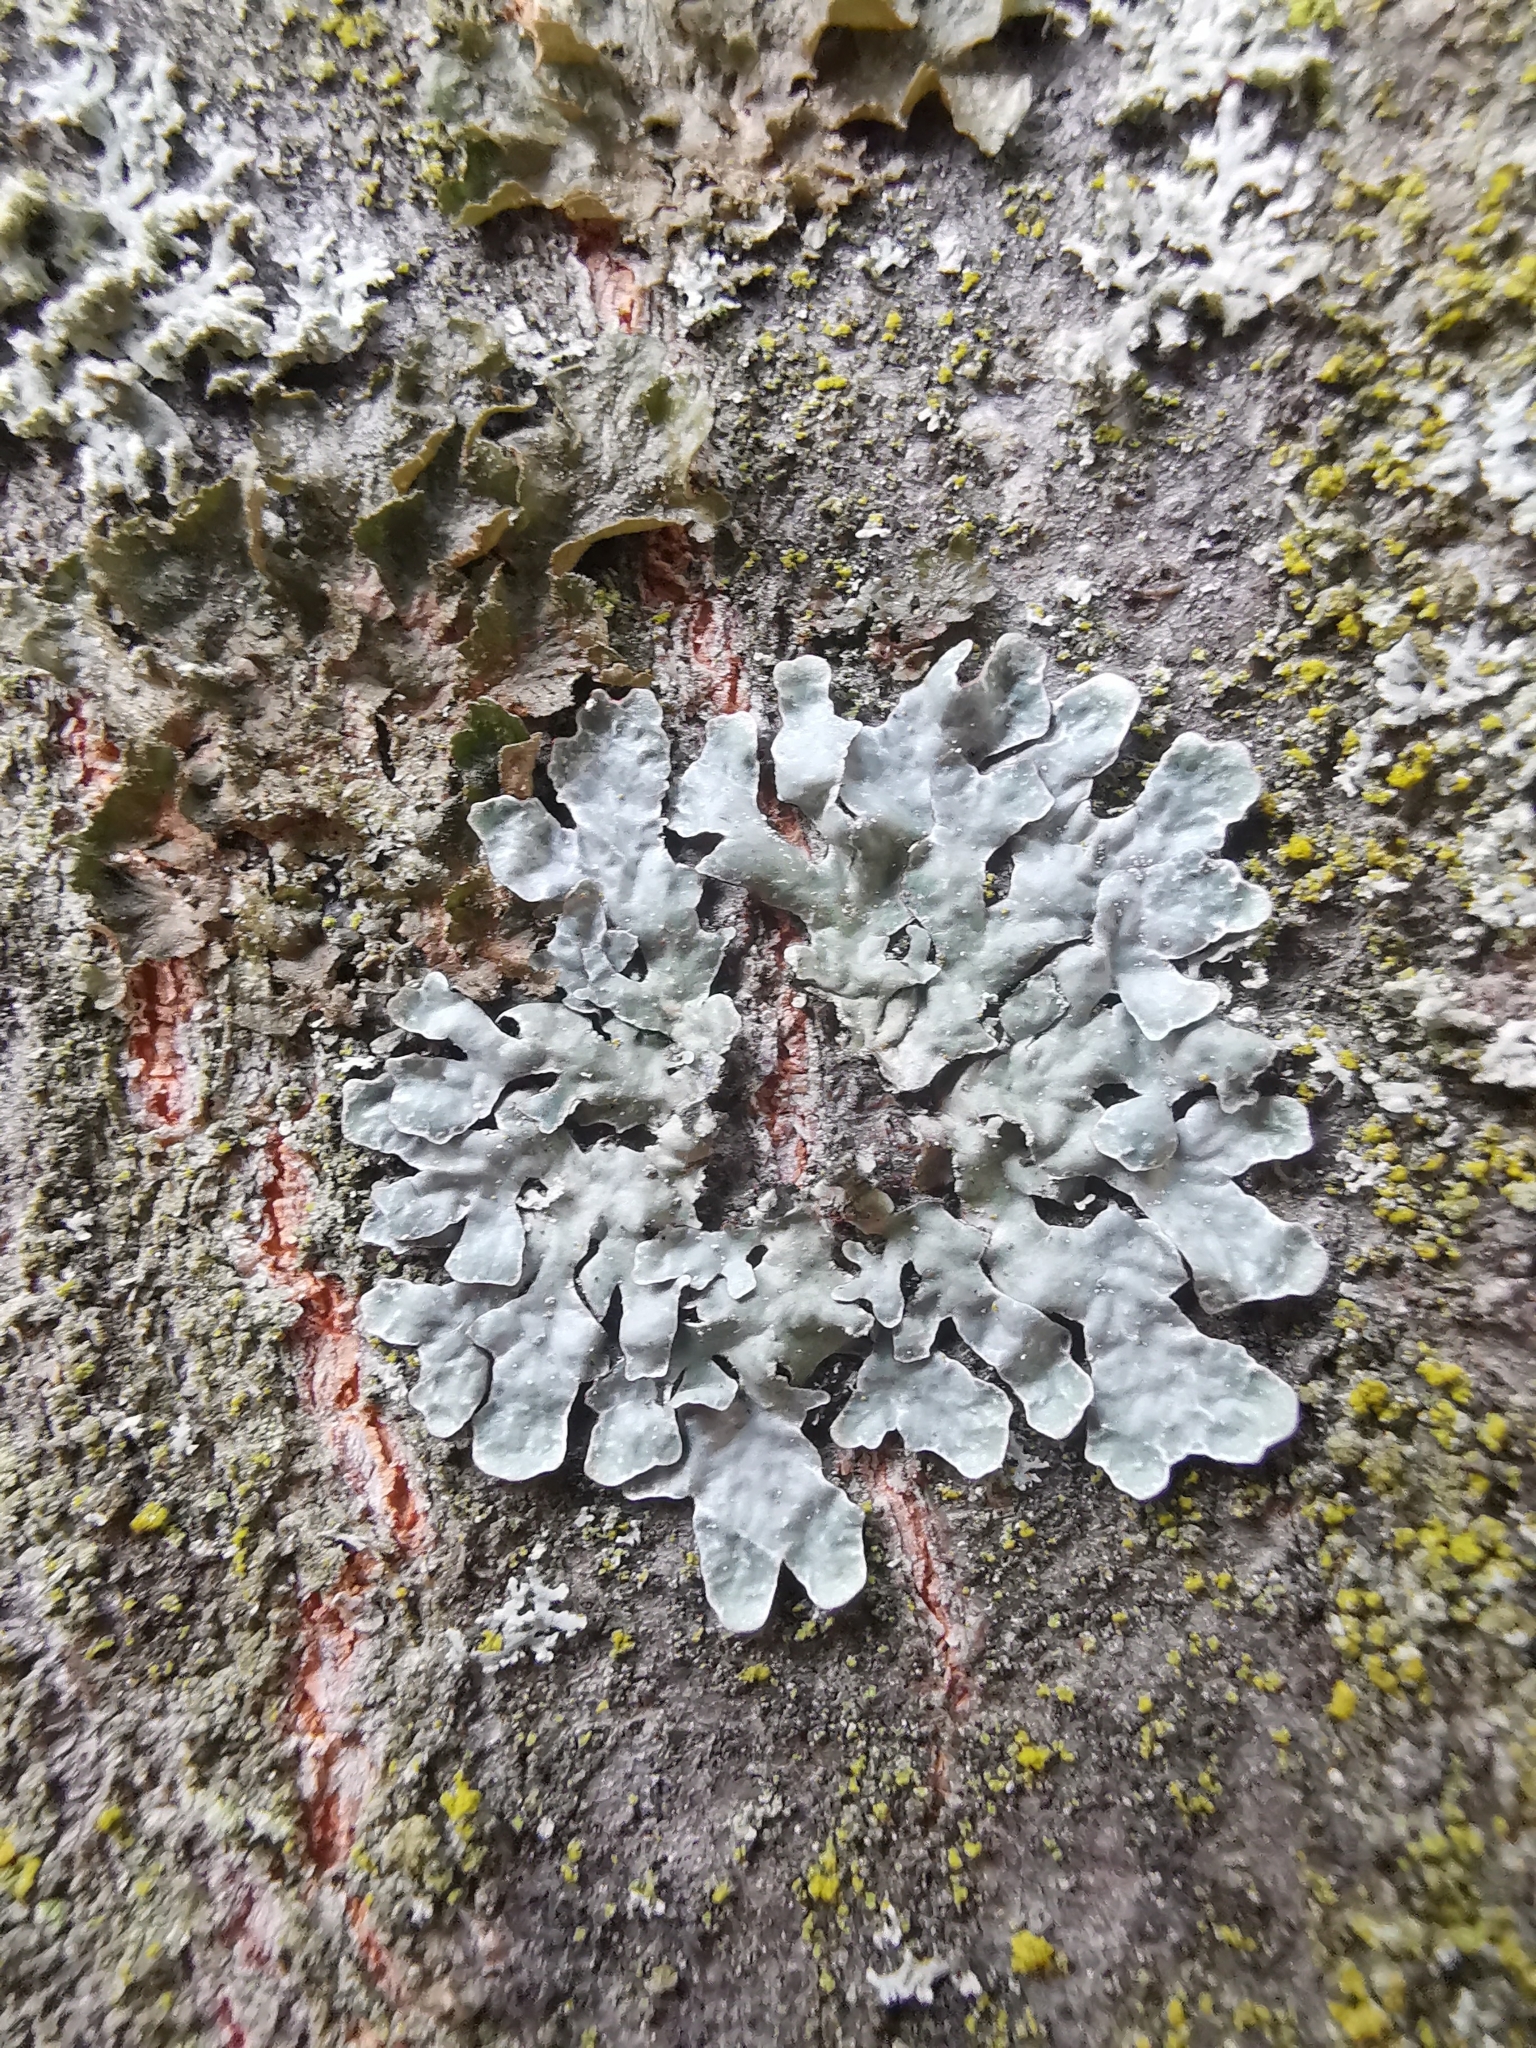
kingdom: Fungi
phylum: Ascomycota
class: Lecanoromycetes
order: Lecanorales
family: Parmeliaceae
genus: Parmelia
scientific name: Parmelia sulcata
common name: Netted shield lichen
